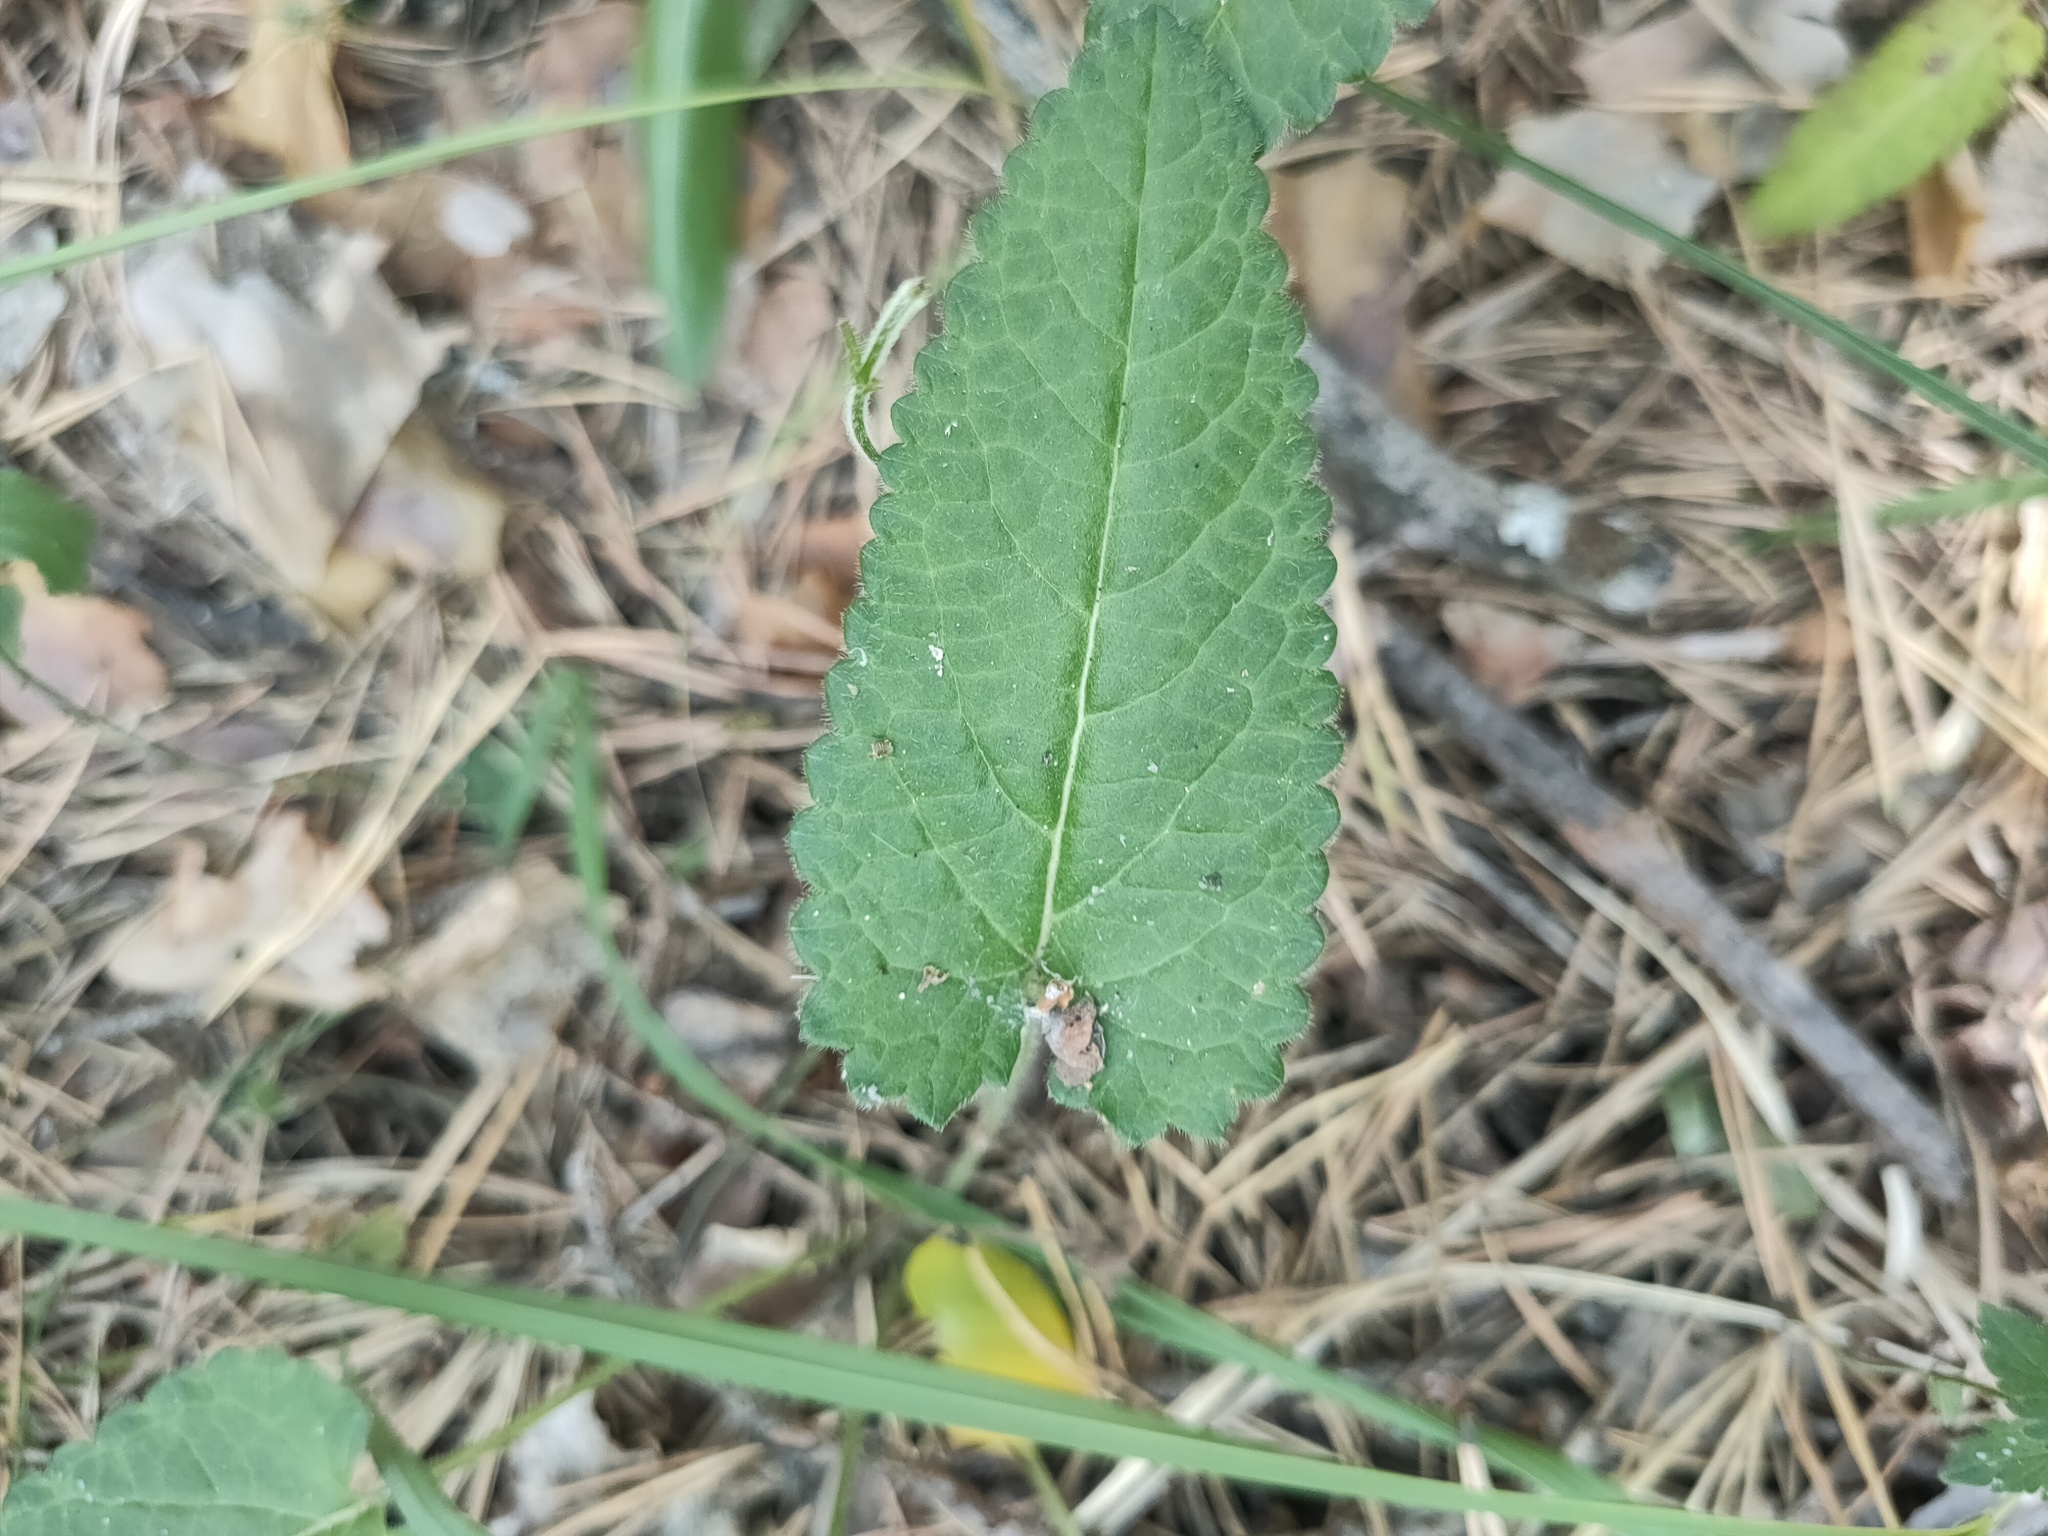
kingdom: Plantae
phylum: Tracheophyta
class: Magnoliopsida
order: Lamiales
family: Lamiaceae
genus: Betonica
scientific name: Betonica officinalis
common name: Bishop's-wort
